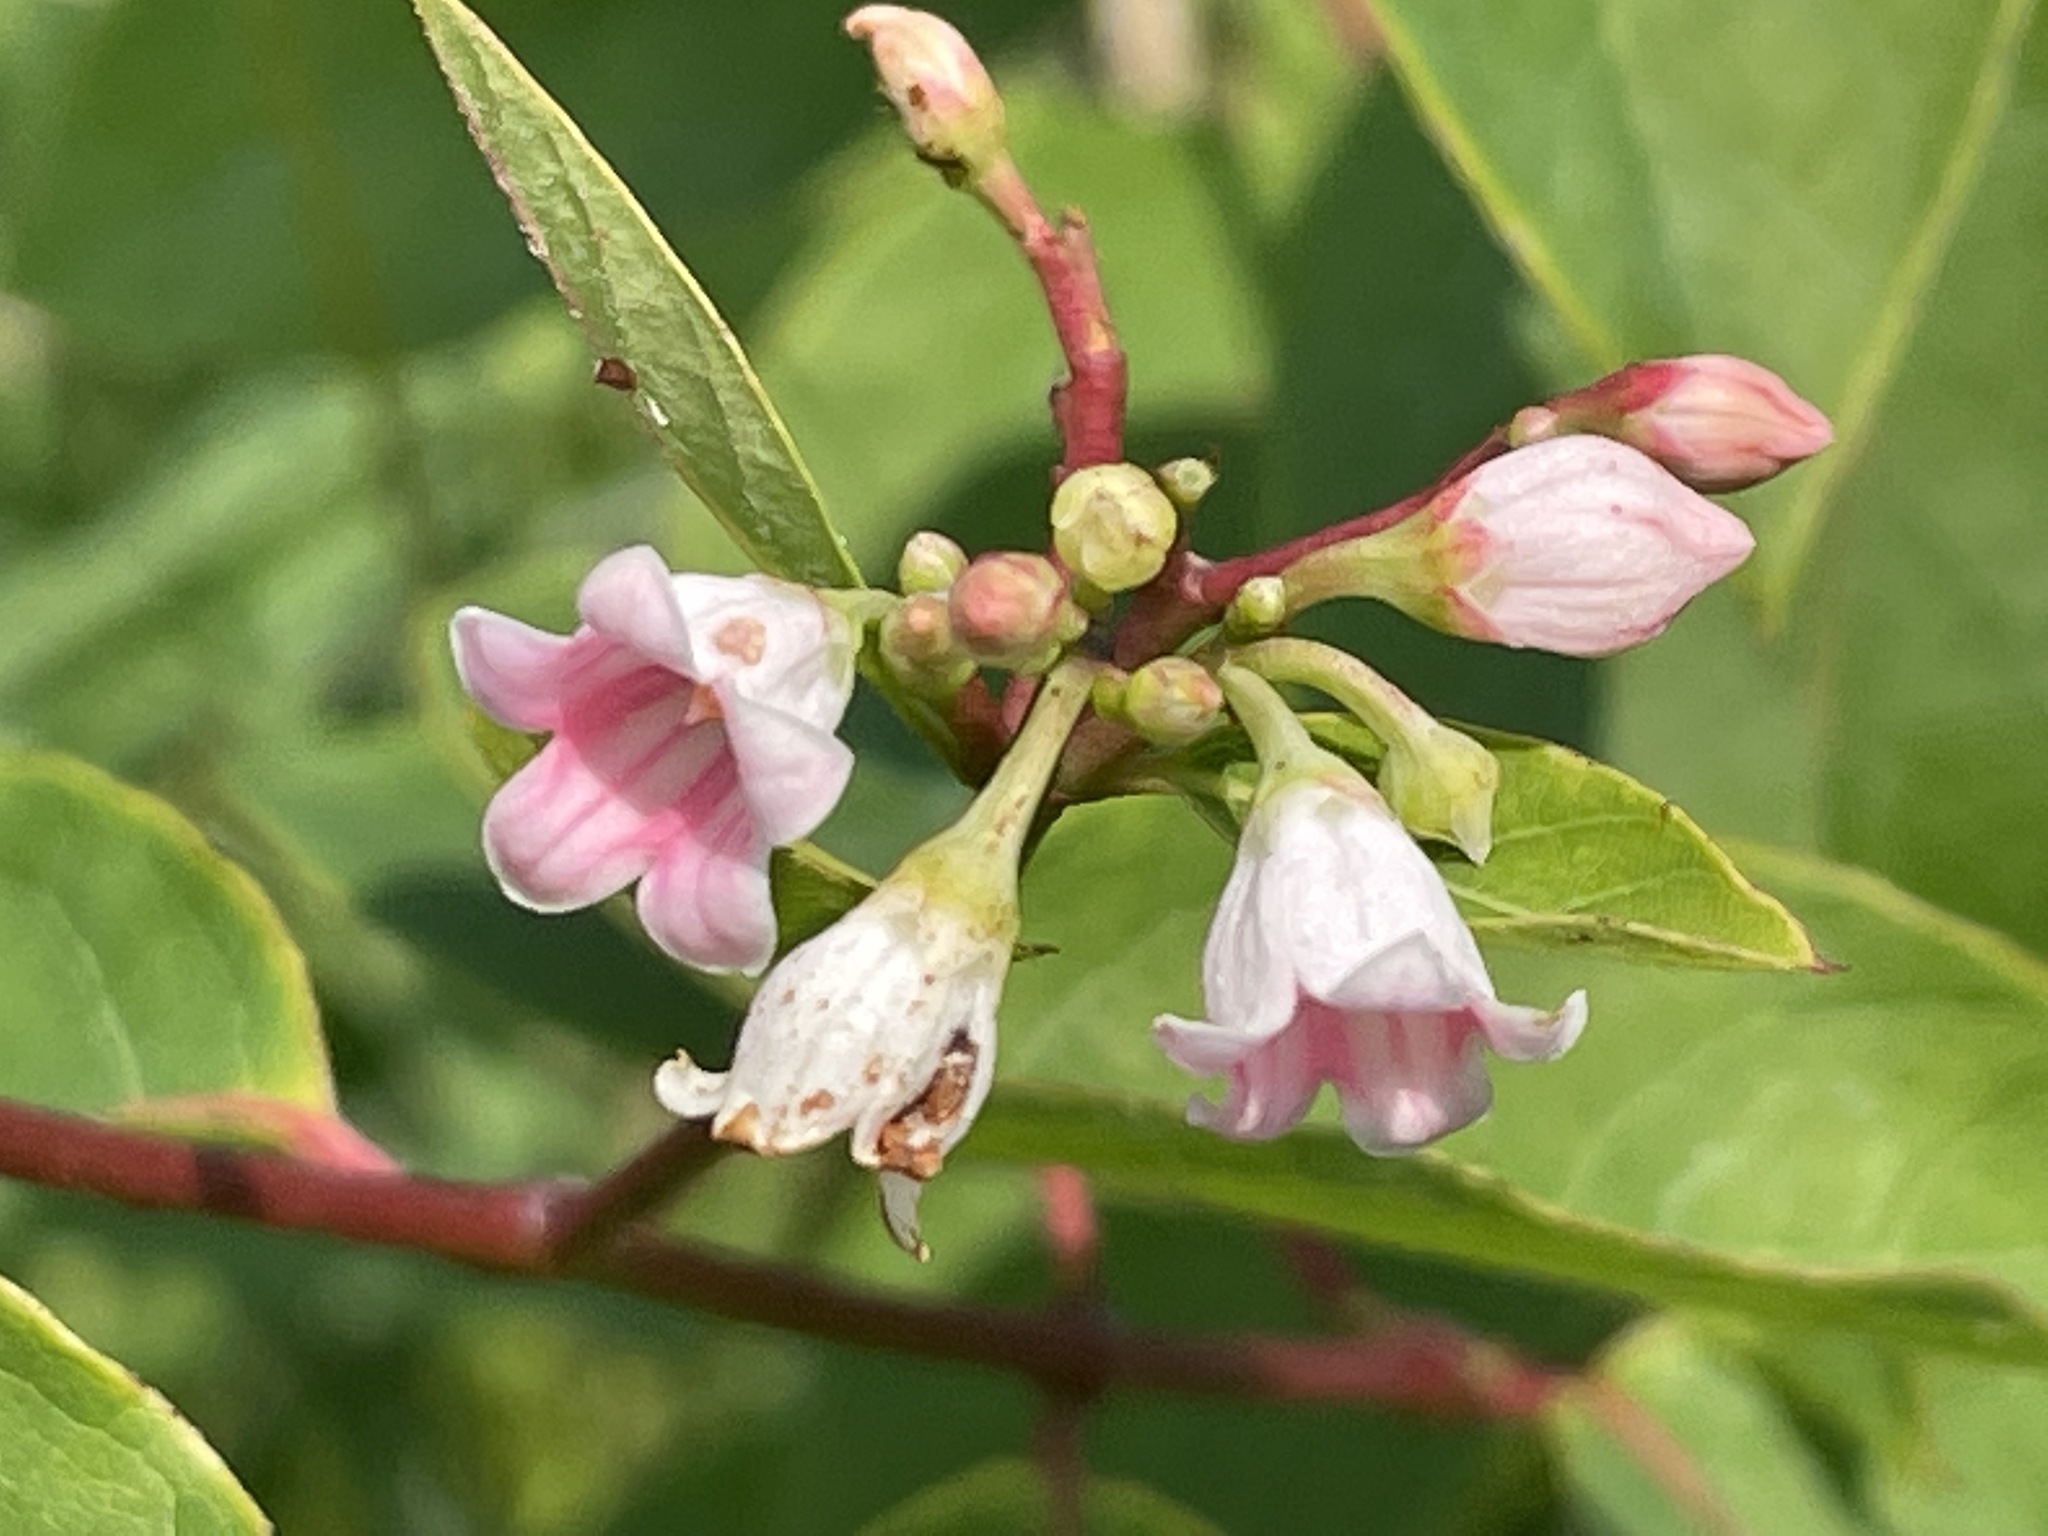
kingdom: Plantae
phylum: Tracheophyta
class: Magnoliopsida
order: Gentianales
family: Apocynaceae
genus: Apocynum
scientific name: Apocynum androsaemifolium
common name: Spreading dogbane
